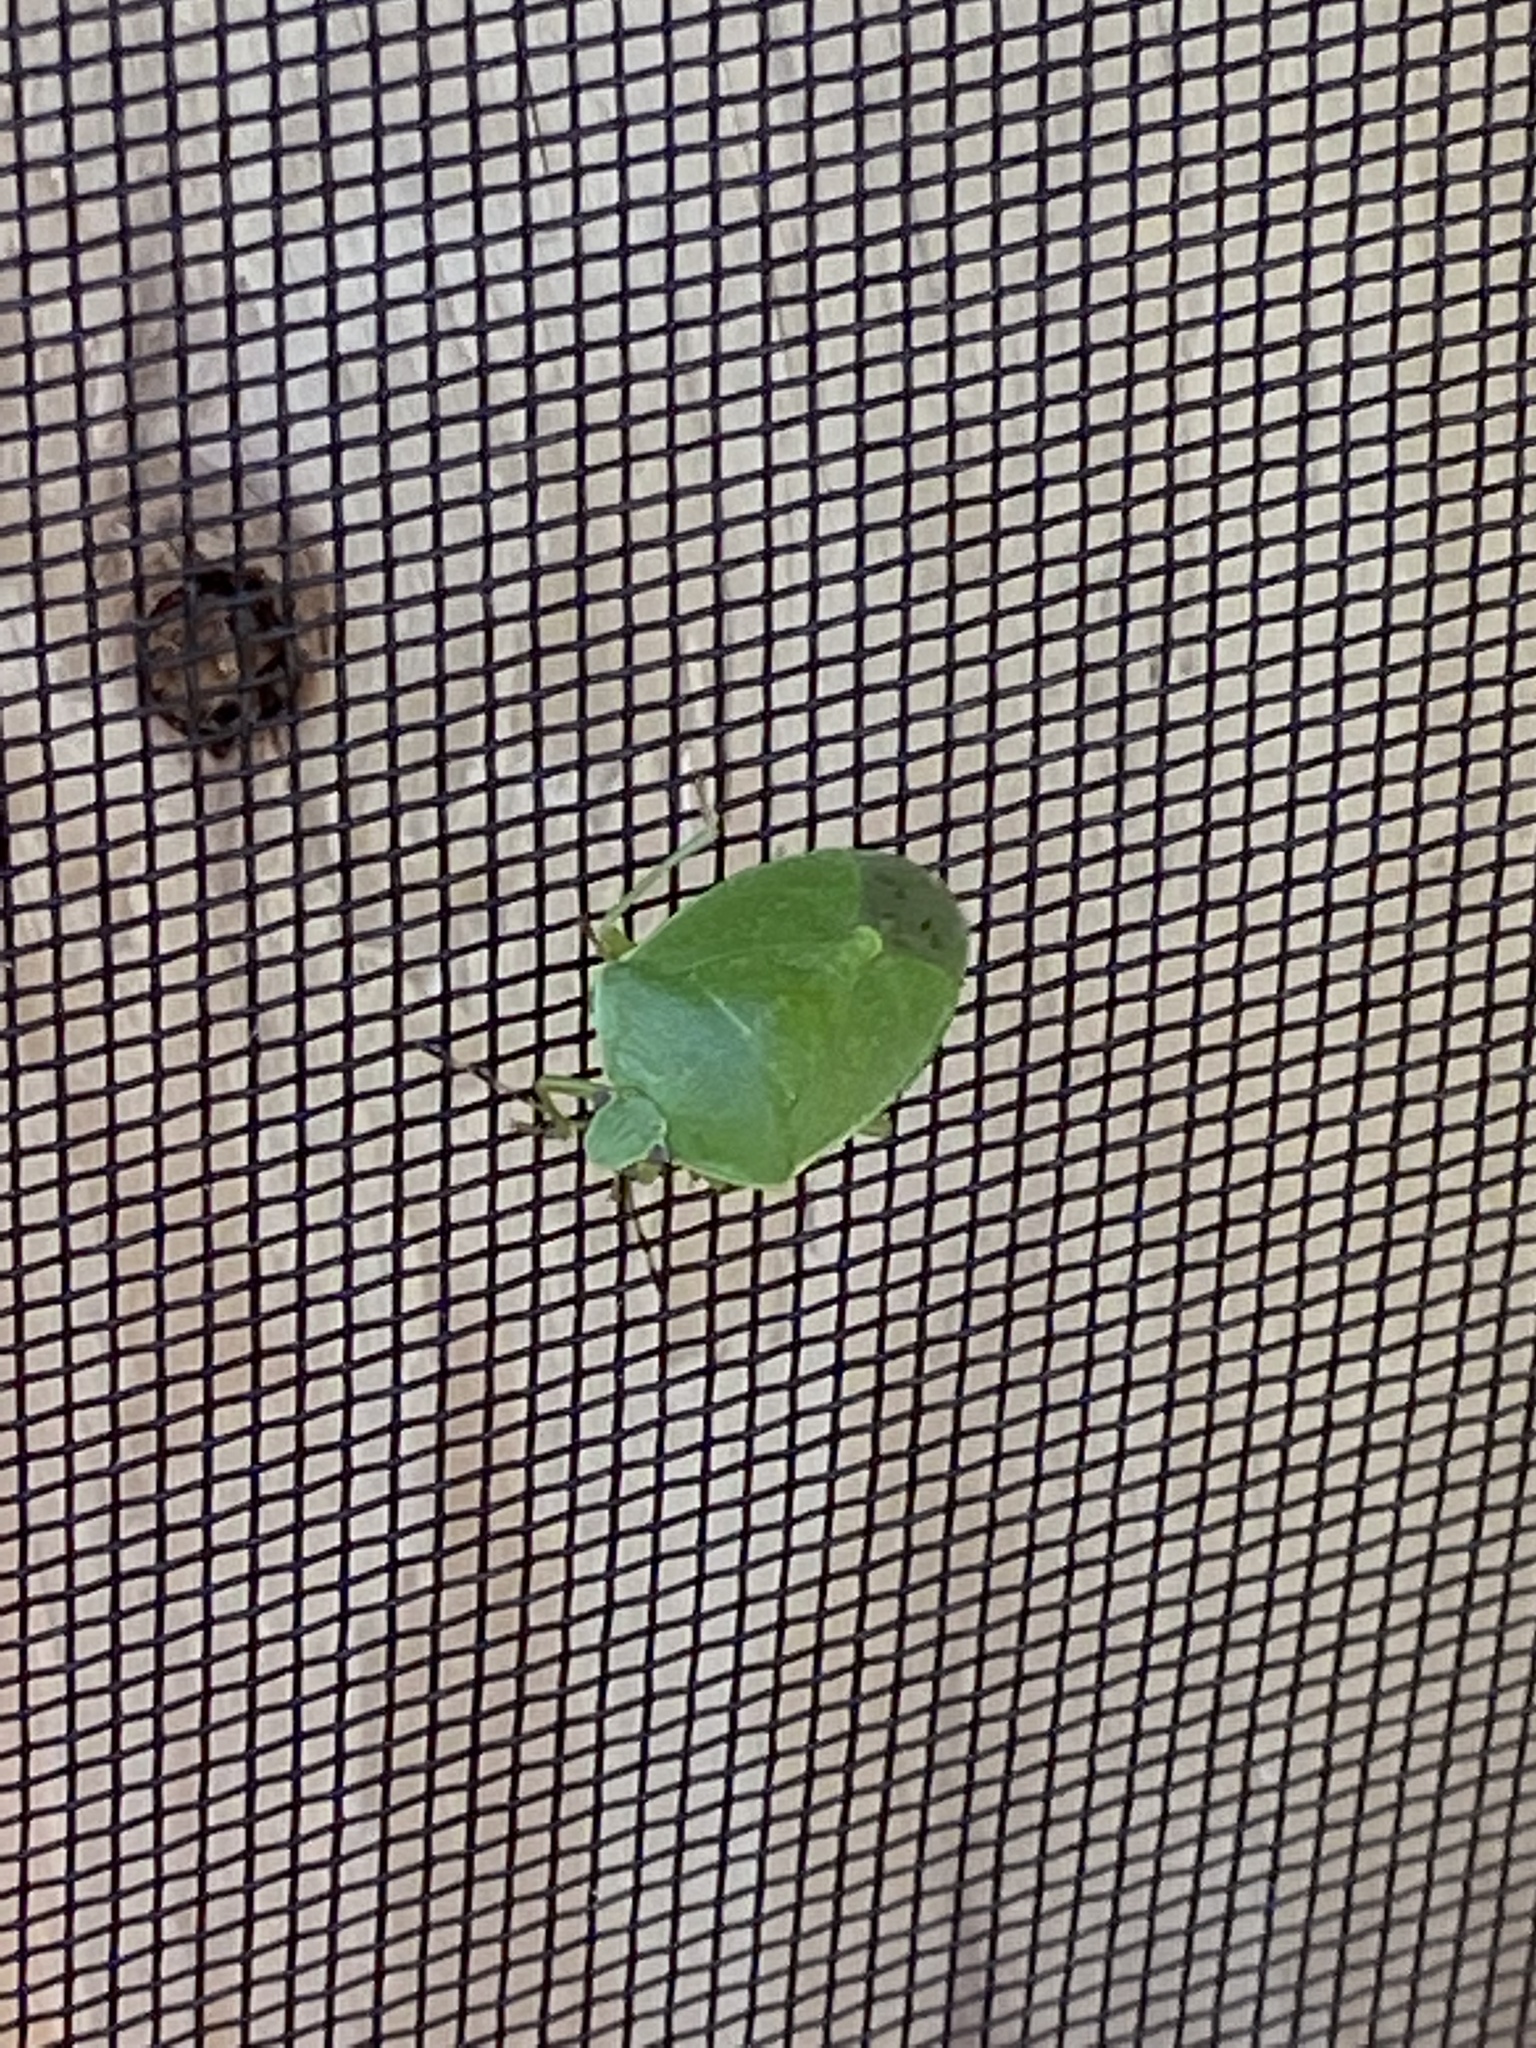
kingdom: Animalia
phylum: Arthropoda
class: Insecta
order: Hemiptera
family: Pentatomidae
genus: Chinavia
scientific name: Chinavia hilaris
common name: Green stink bug
